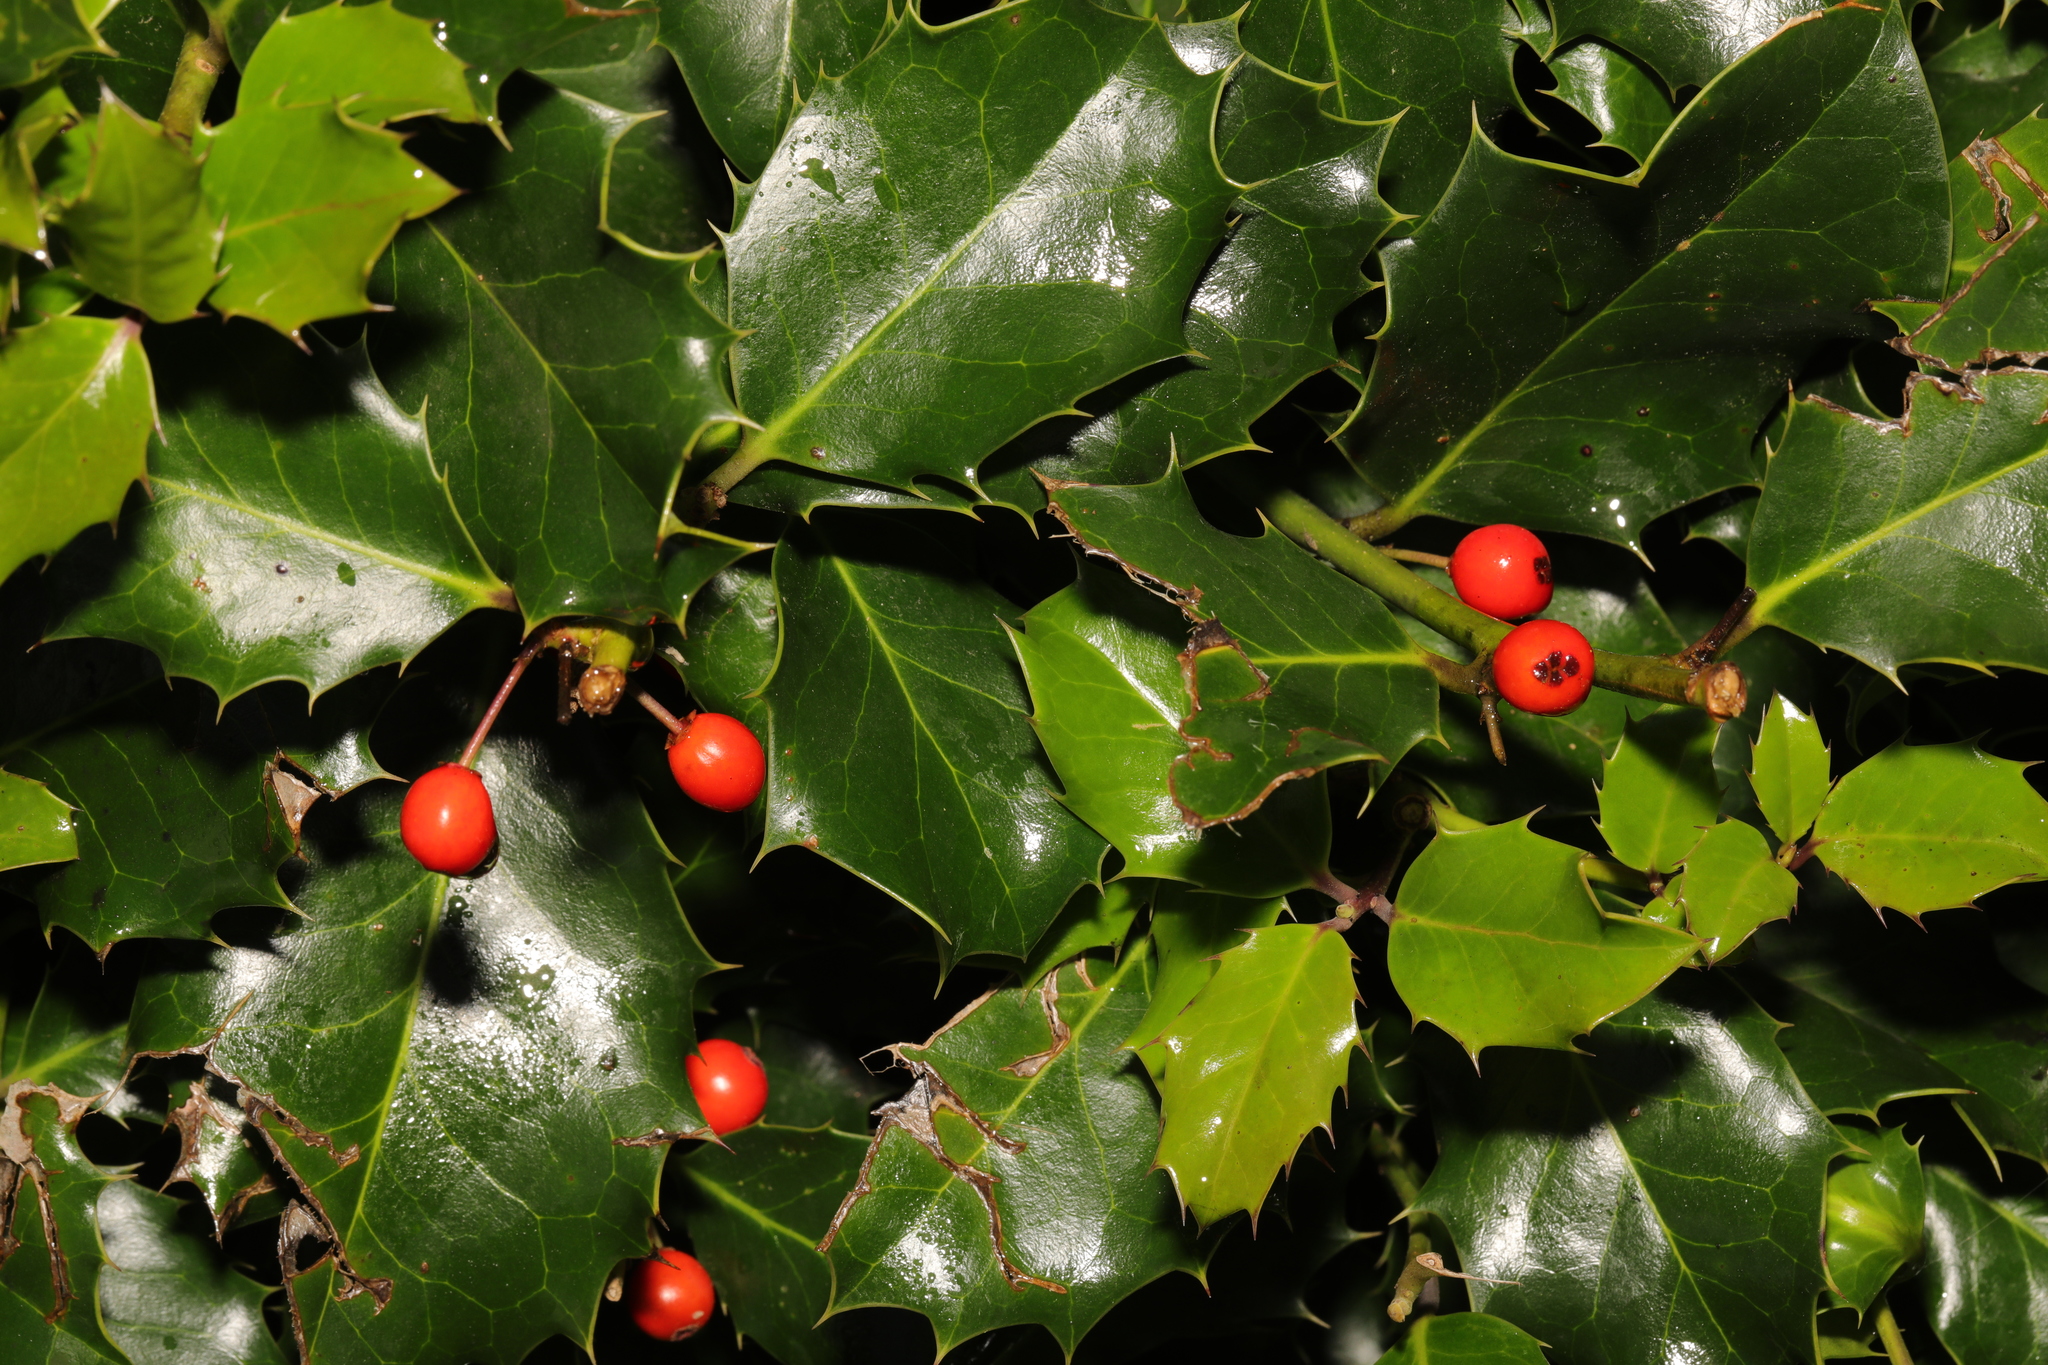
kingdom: Plantae
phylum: Tracheophyta
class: Magnoliopsida
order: Aquifoliales
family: Aquifoliaceae
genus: Ilex
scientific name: Ilex aquifolium
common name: English holly
